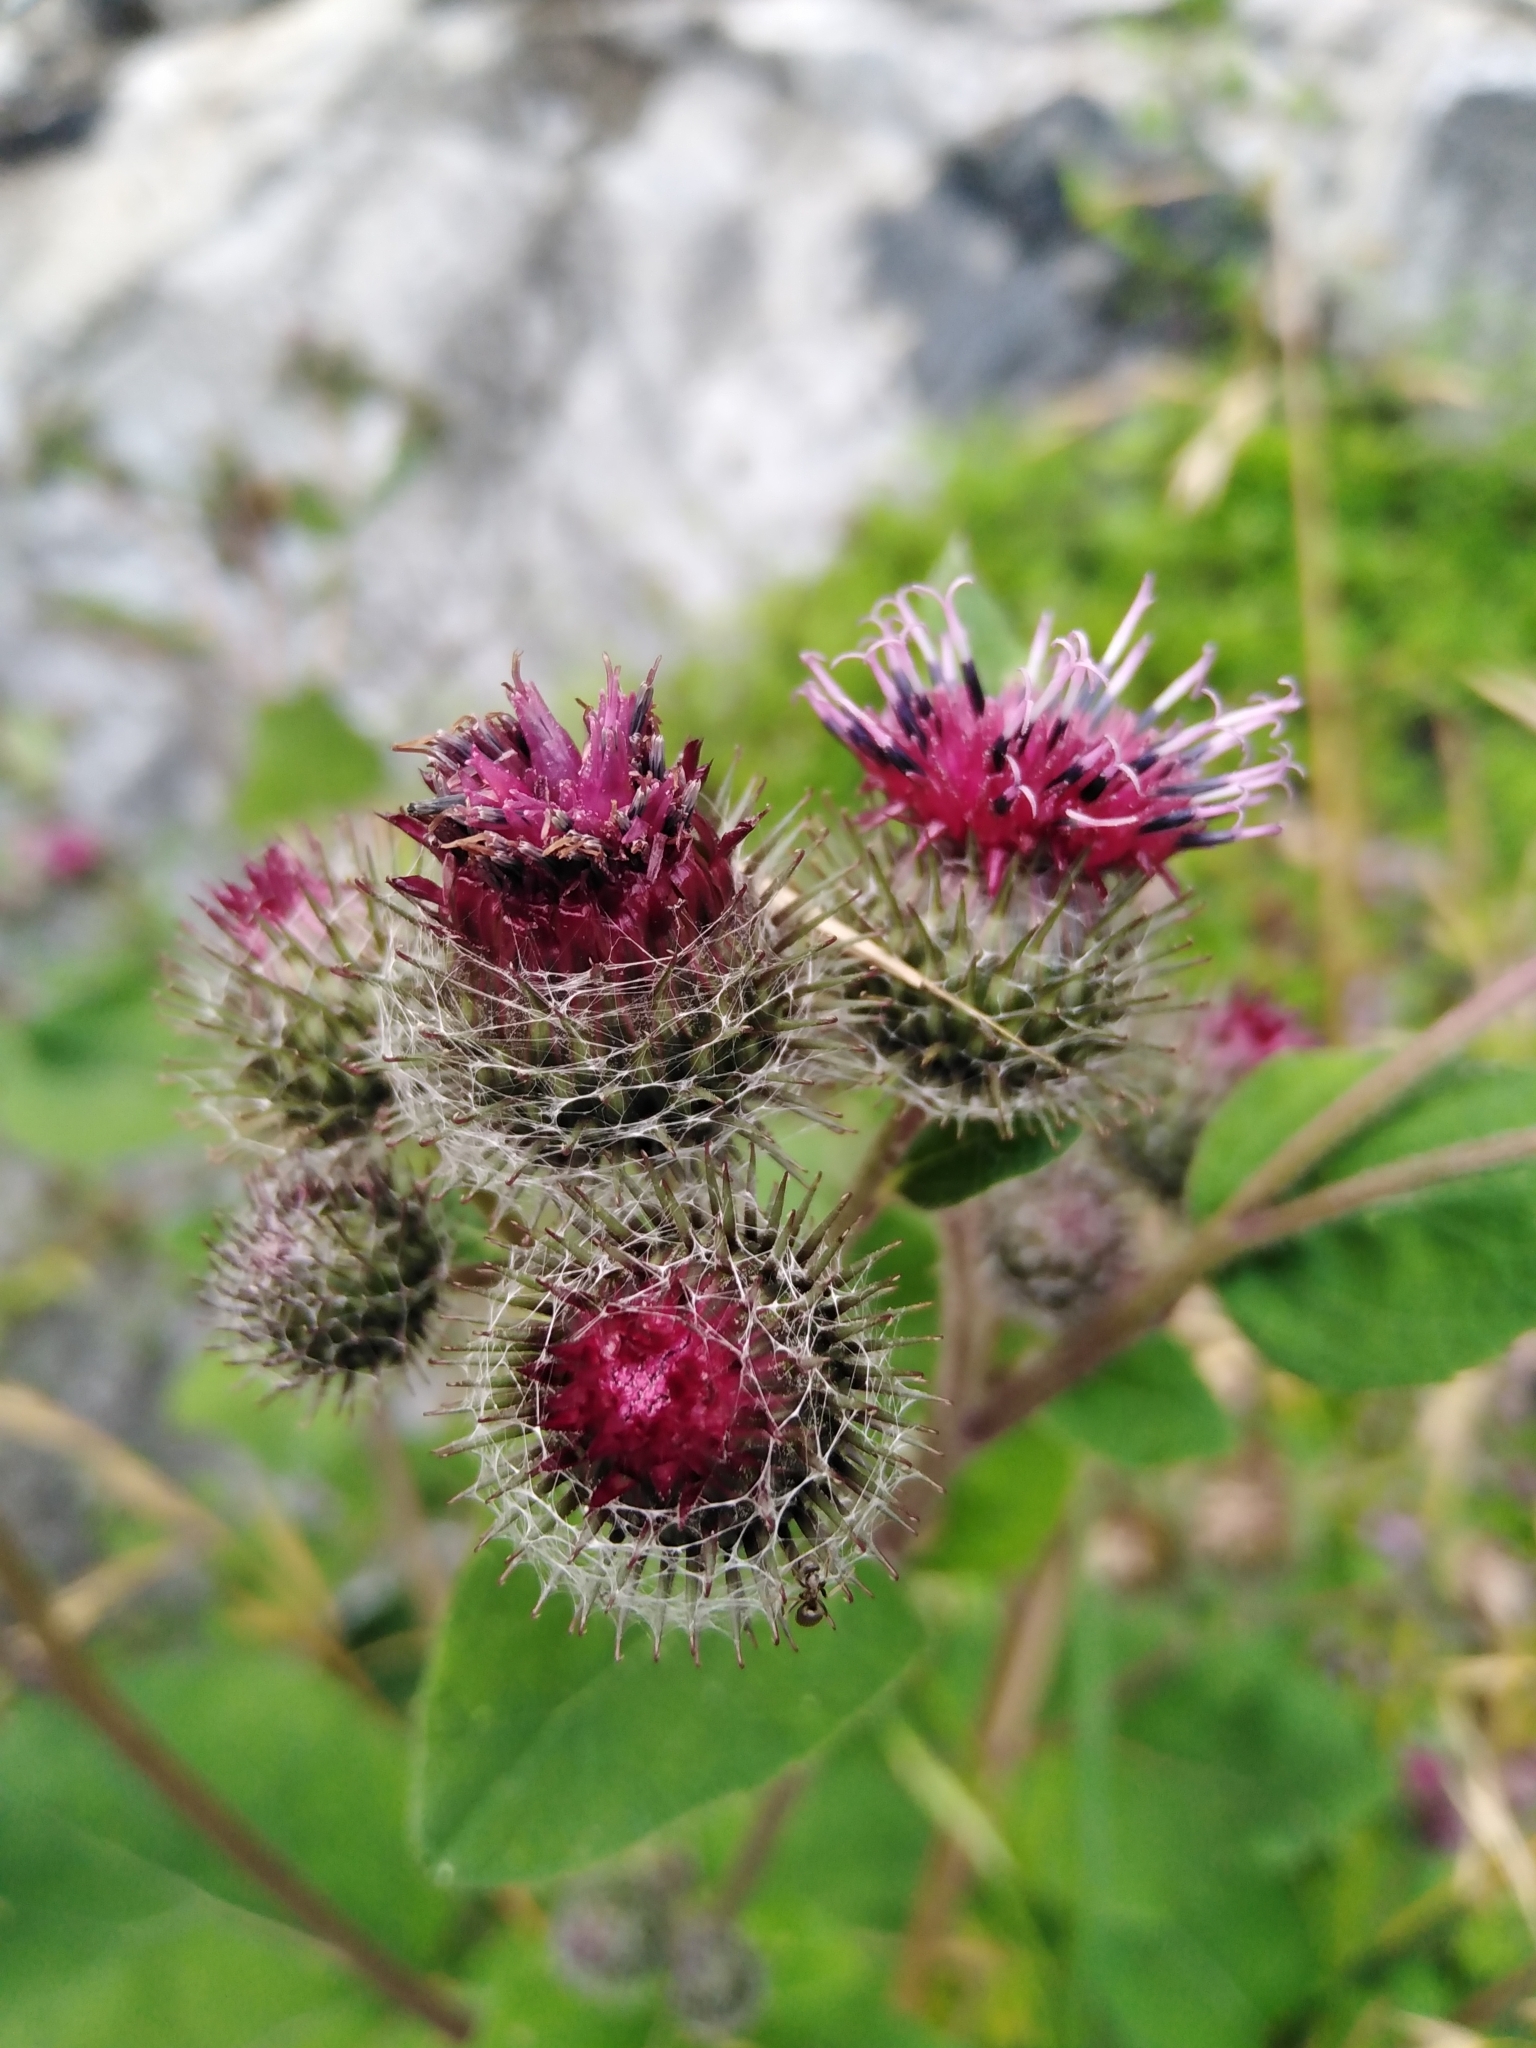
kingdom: Plantae
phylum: Tracheophyta
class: Magnoliopsida
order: Asterales
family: Asteraceae
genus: Arctium
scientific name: Arctium tomentosum
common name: Woolly burdock
